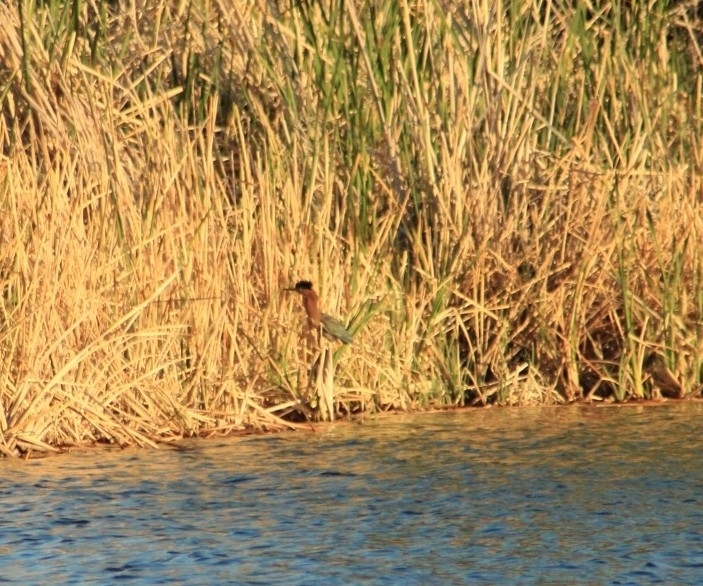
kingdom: Animalia
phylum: Chordata
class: Aves
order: Pelecaniformes
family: Ardeidae
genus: Butorides
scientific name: Butorides virescens
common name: Green heron
